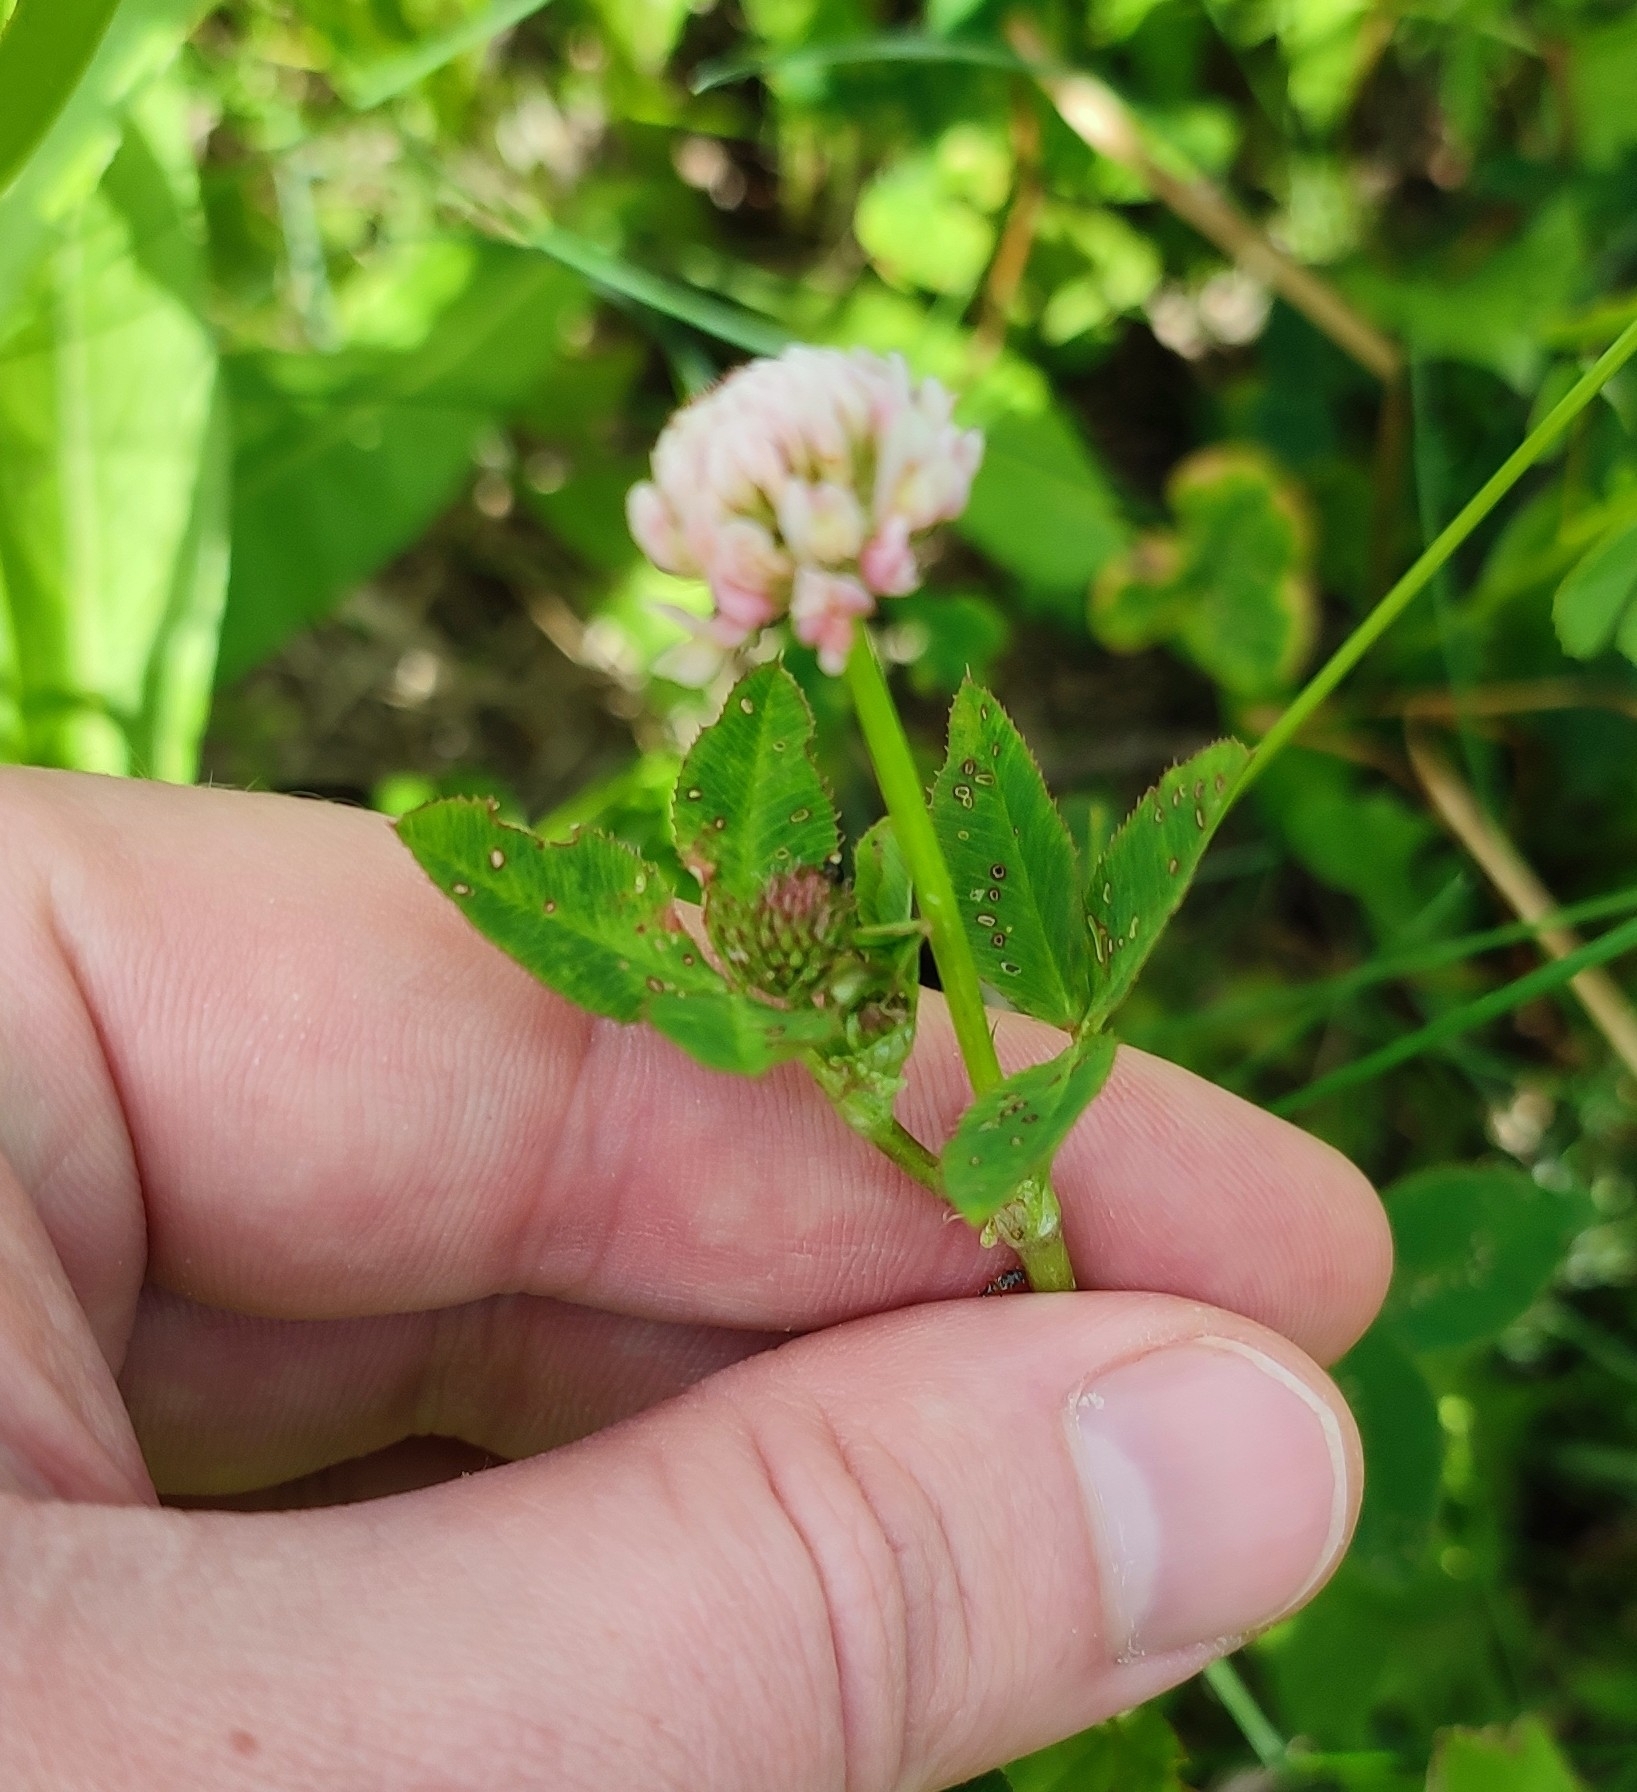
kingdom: Plantae
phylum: Tracheophyta
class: Magnoliopsida
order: Fabales
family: Fabaceae
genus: Trifolium
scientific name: Trifolium hybridum
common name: Alsike clover
